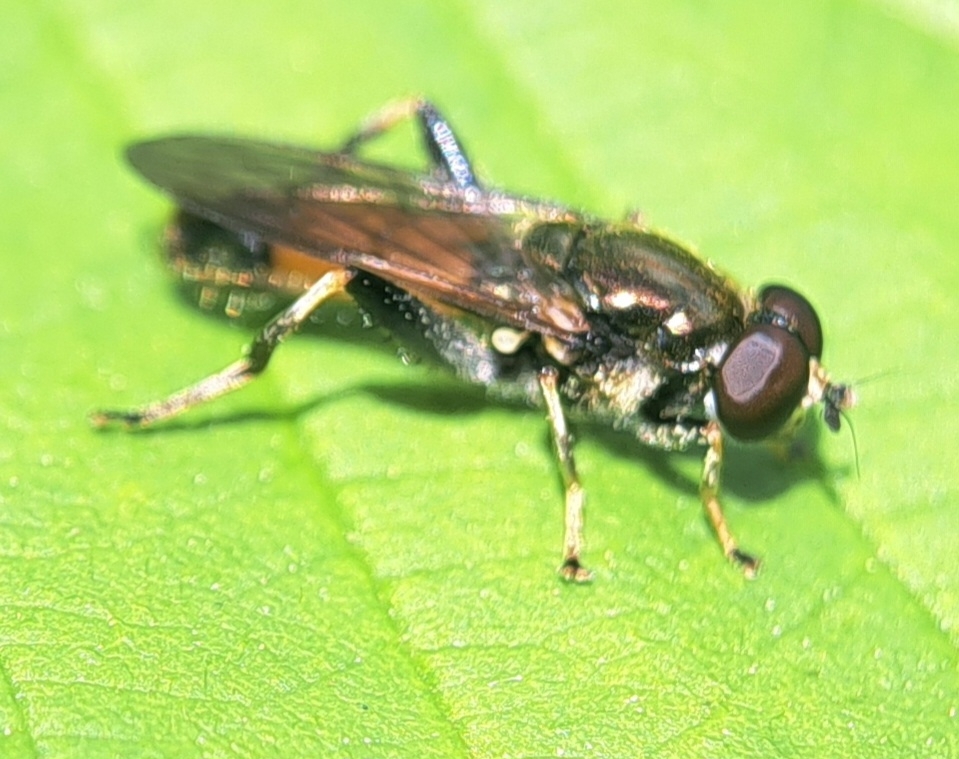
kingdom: Animalia
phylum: Arthropoda
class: Insecta
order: Diptera
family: Syrphidae
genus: Xylota
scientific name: Xylota segnis
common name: Brown-toed forest fly
